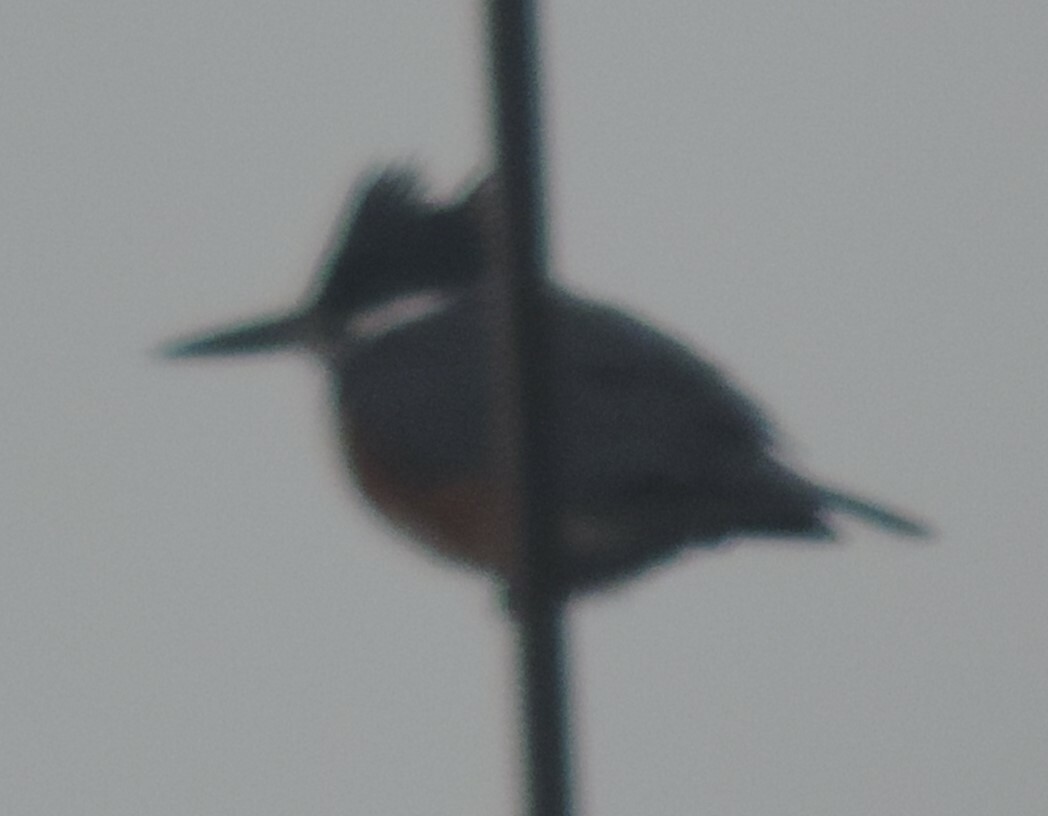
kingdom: Animalia
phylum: Chordata
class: Aves
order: Coraciiformes
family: Alcedinidae
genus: Megaceryle
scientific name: Megaceryle alcyon
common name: Belted kingfisher
